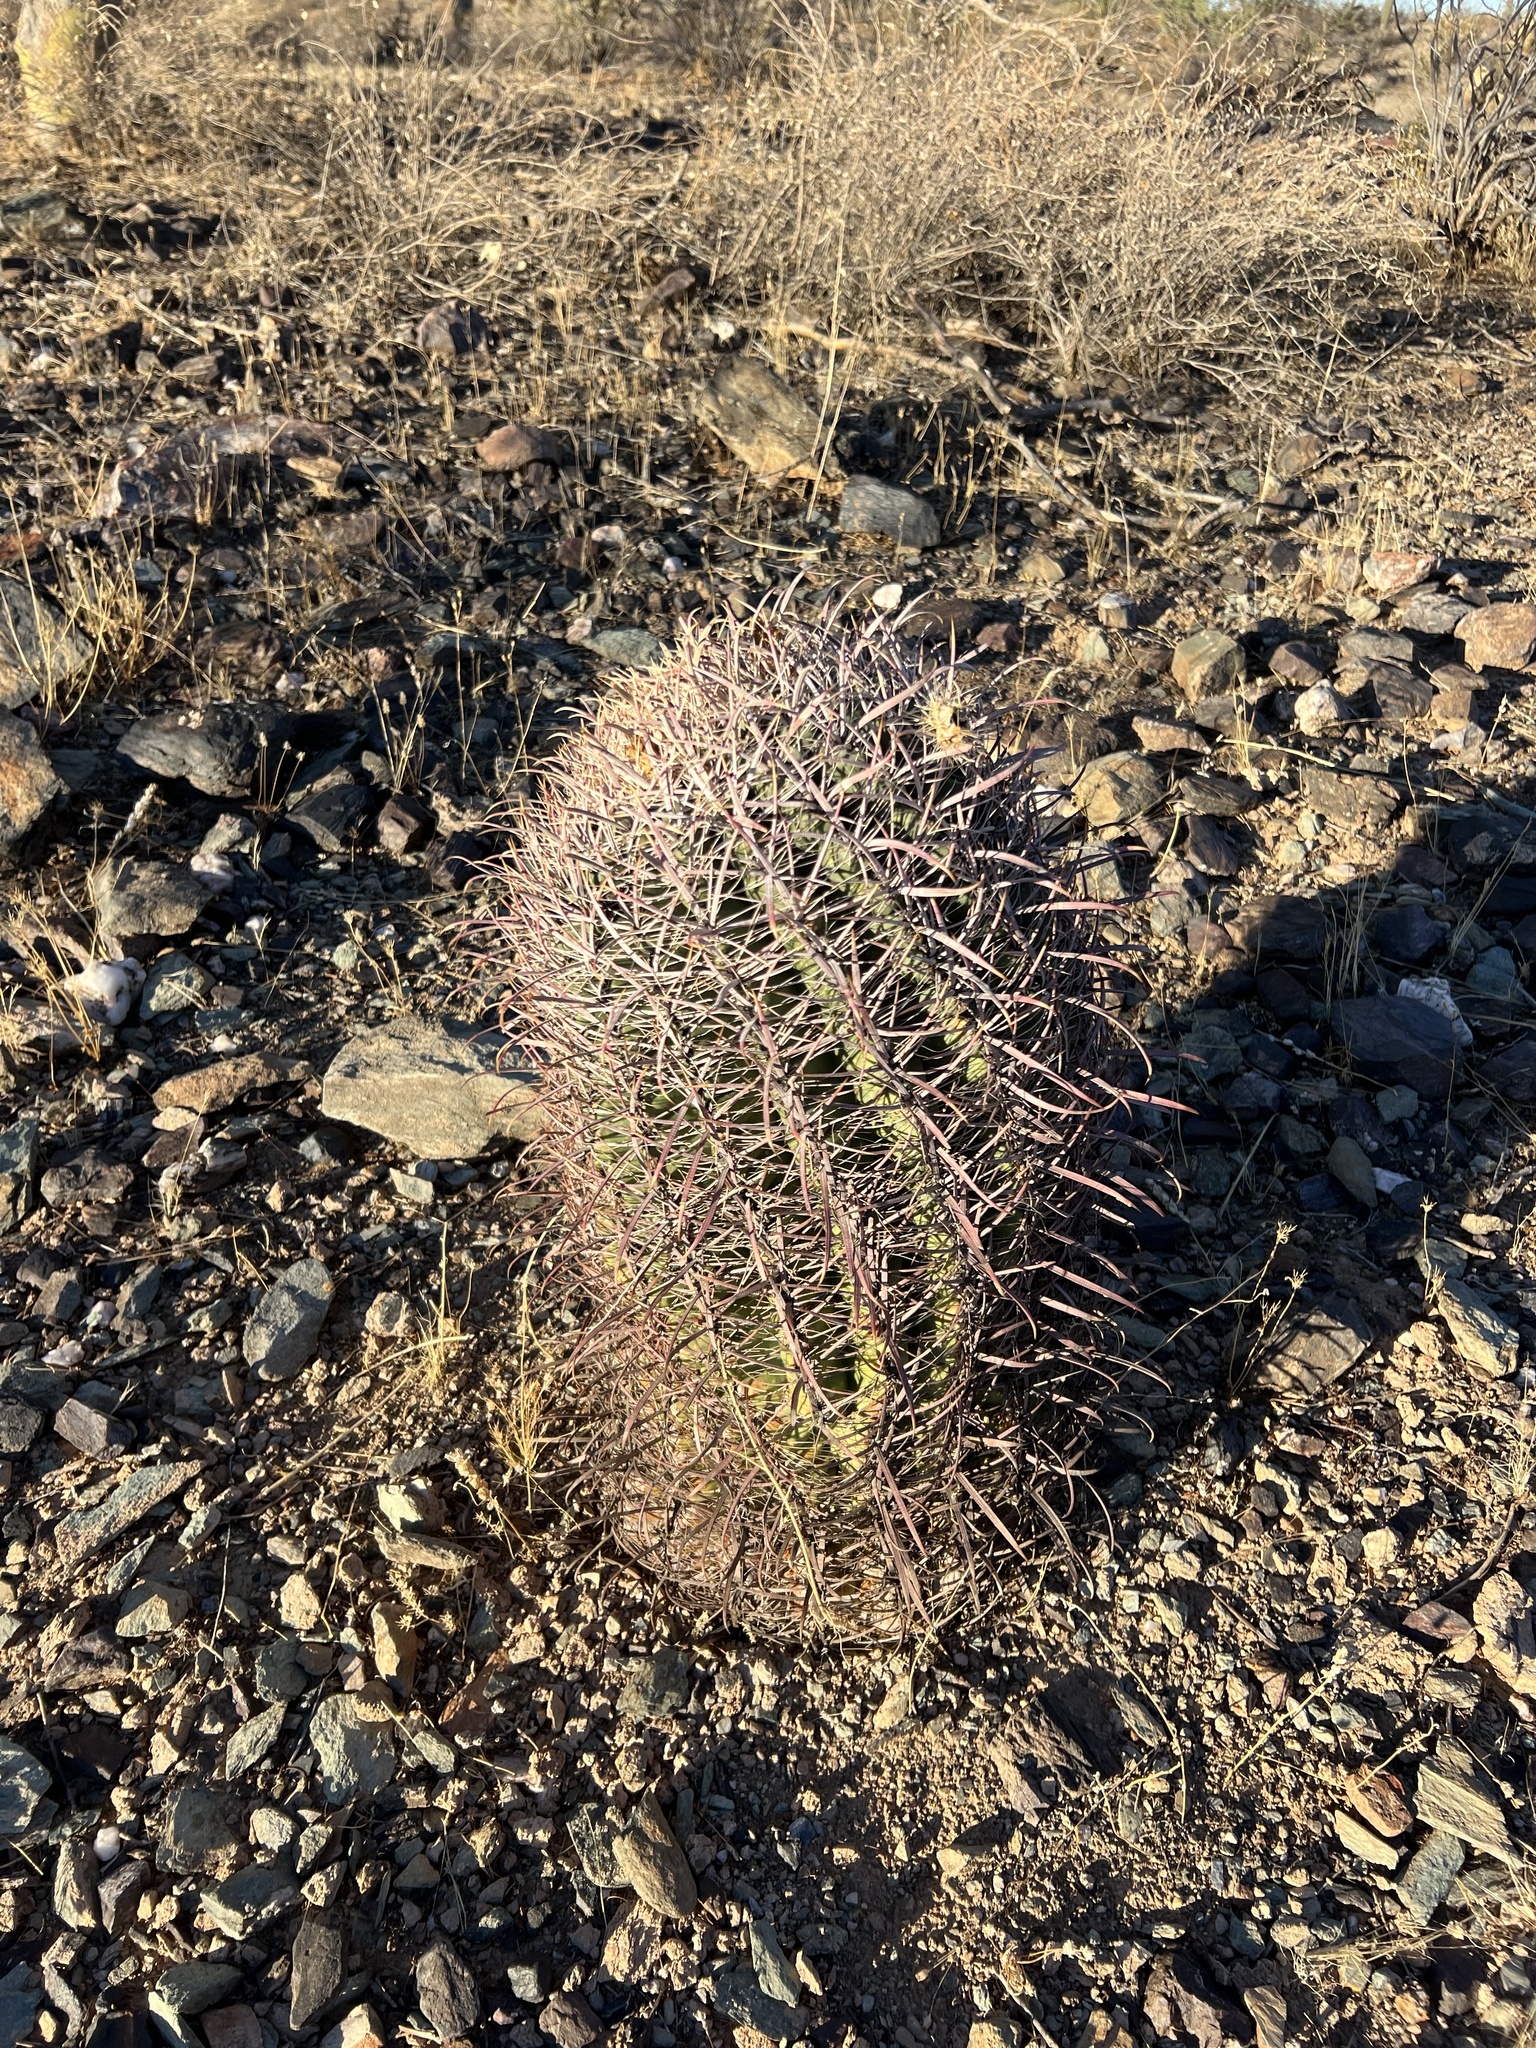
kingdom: Plantae
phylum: Tracheophyta
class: Magnoliopsida
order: Caryophyllales
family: Cactaceae
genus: Ferocactus
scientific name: Ferocactus cylindraceus
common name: California barrel cactus
